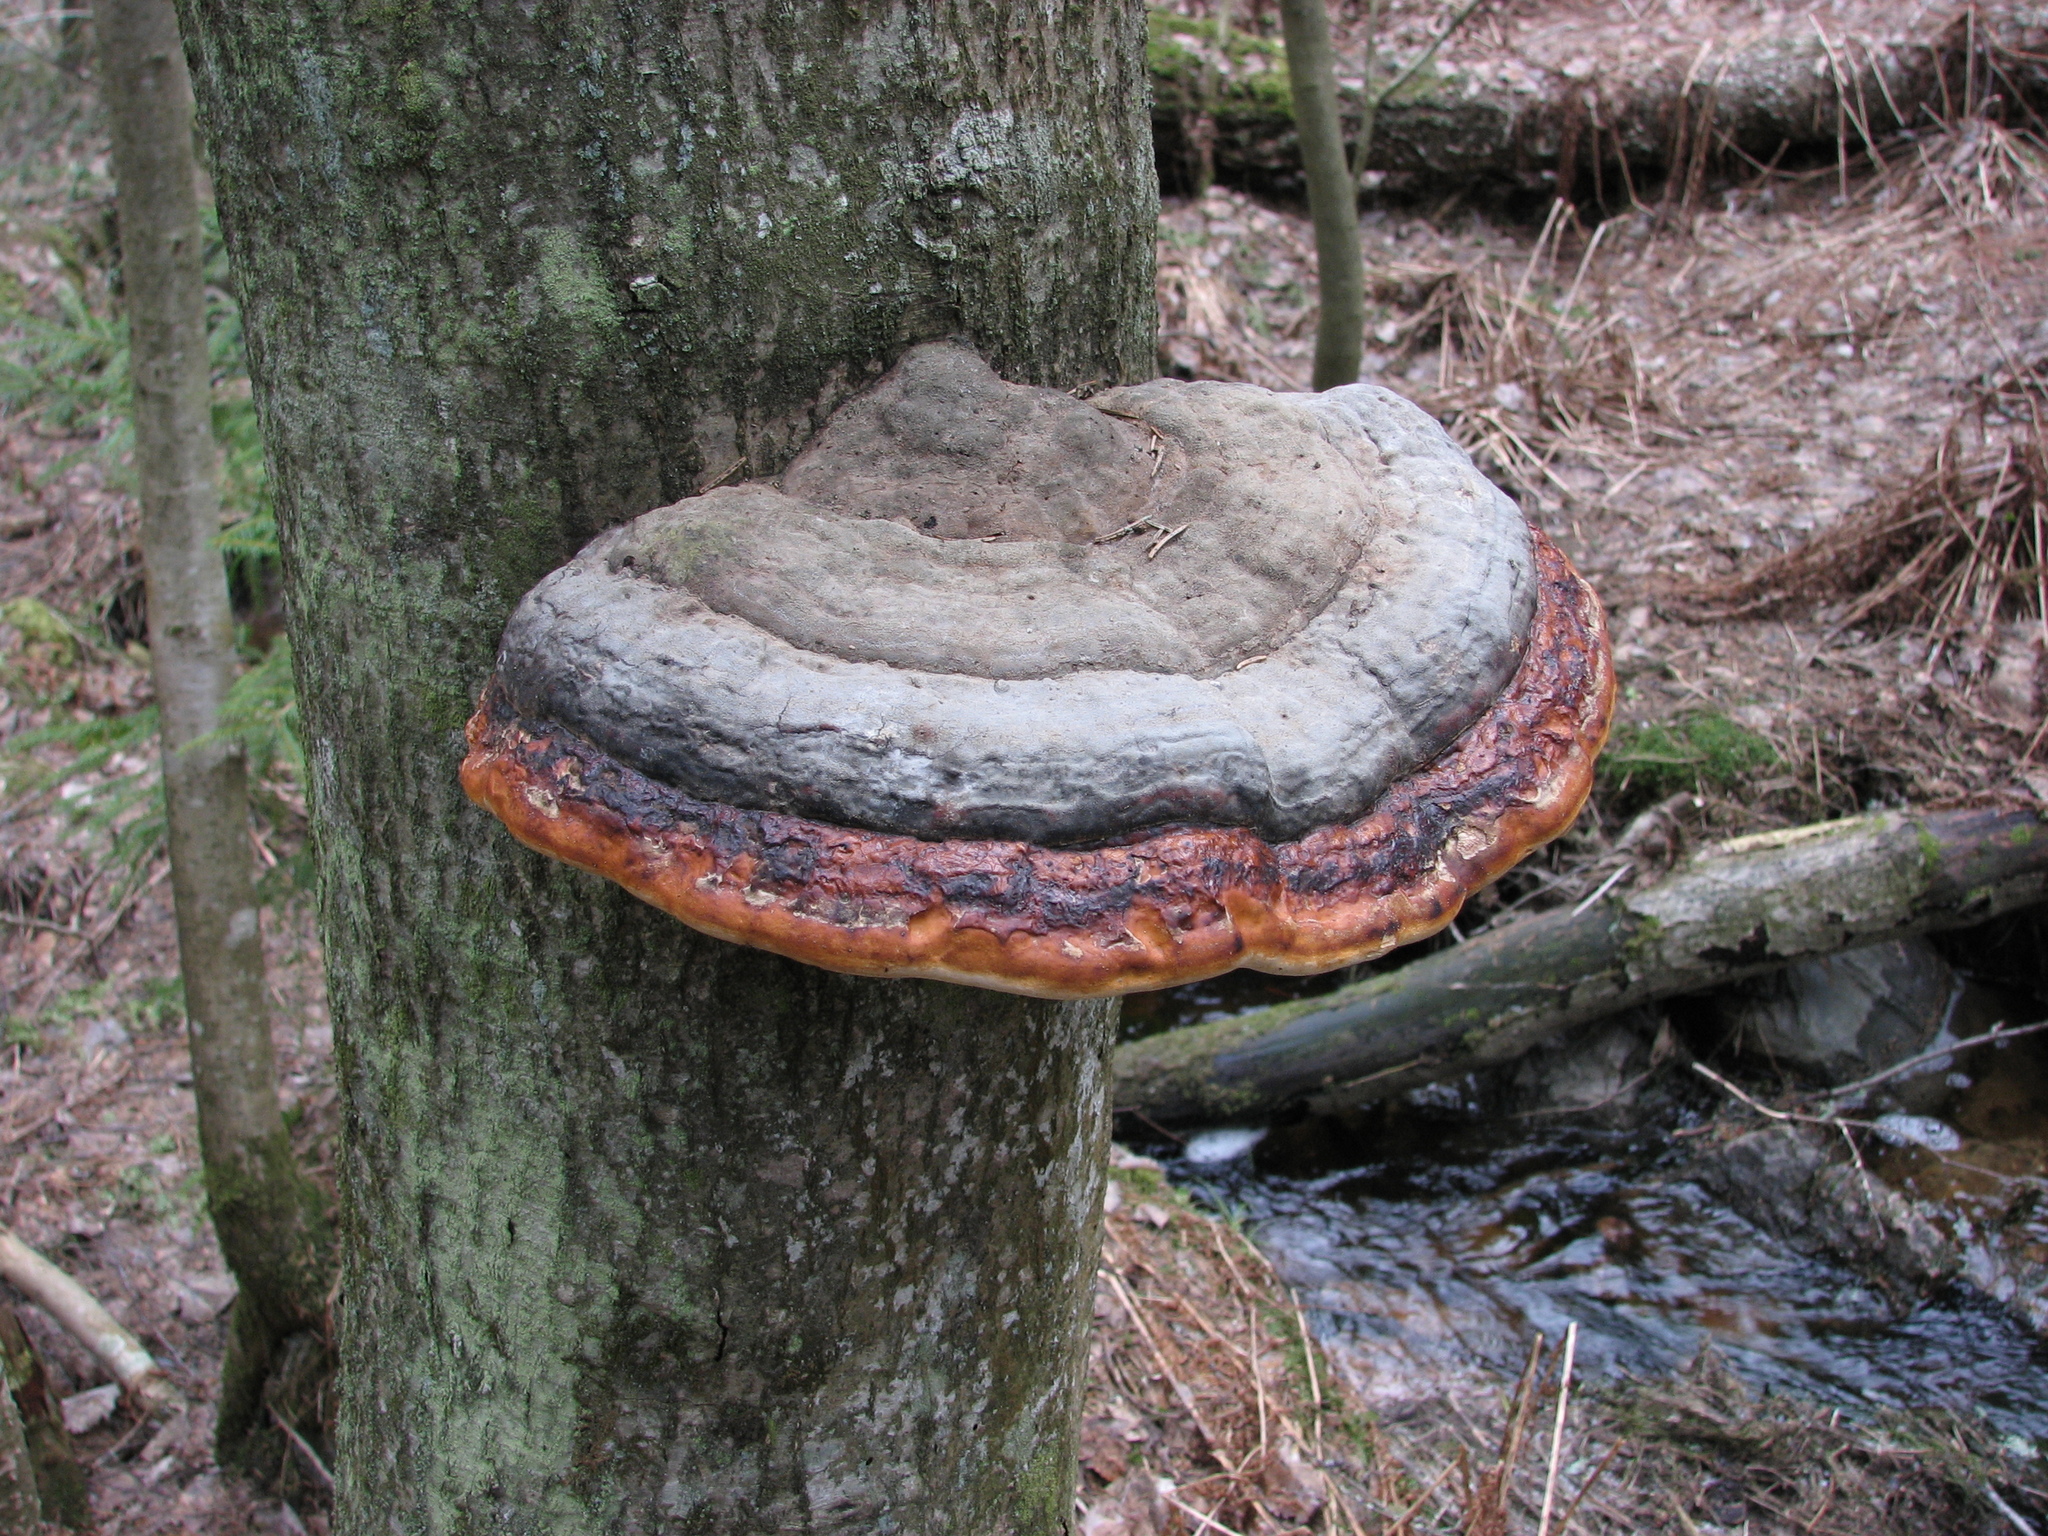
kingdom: Fungi
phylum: Basidiomycota
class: Agaricomycetes
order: Polyporales
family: Fomitopsidaceae
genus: Fomitopsis
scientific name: Fomitopsis pinicola
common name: Red-belted bracket
